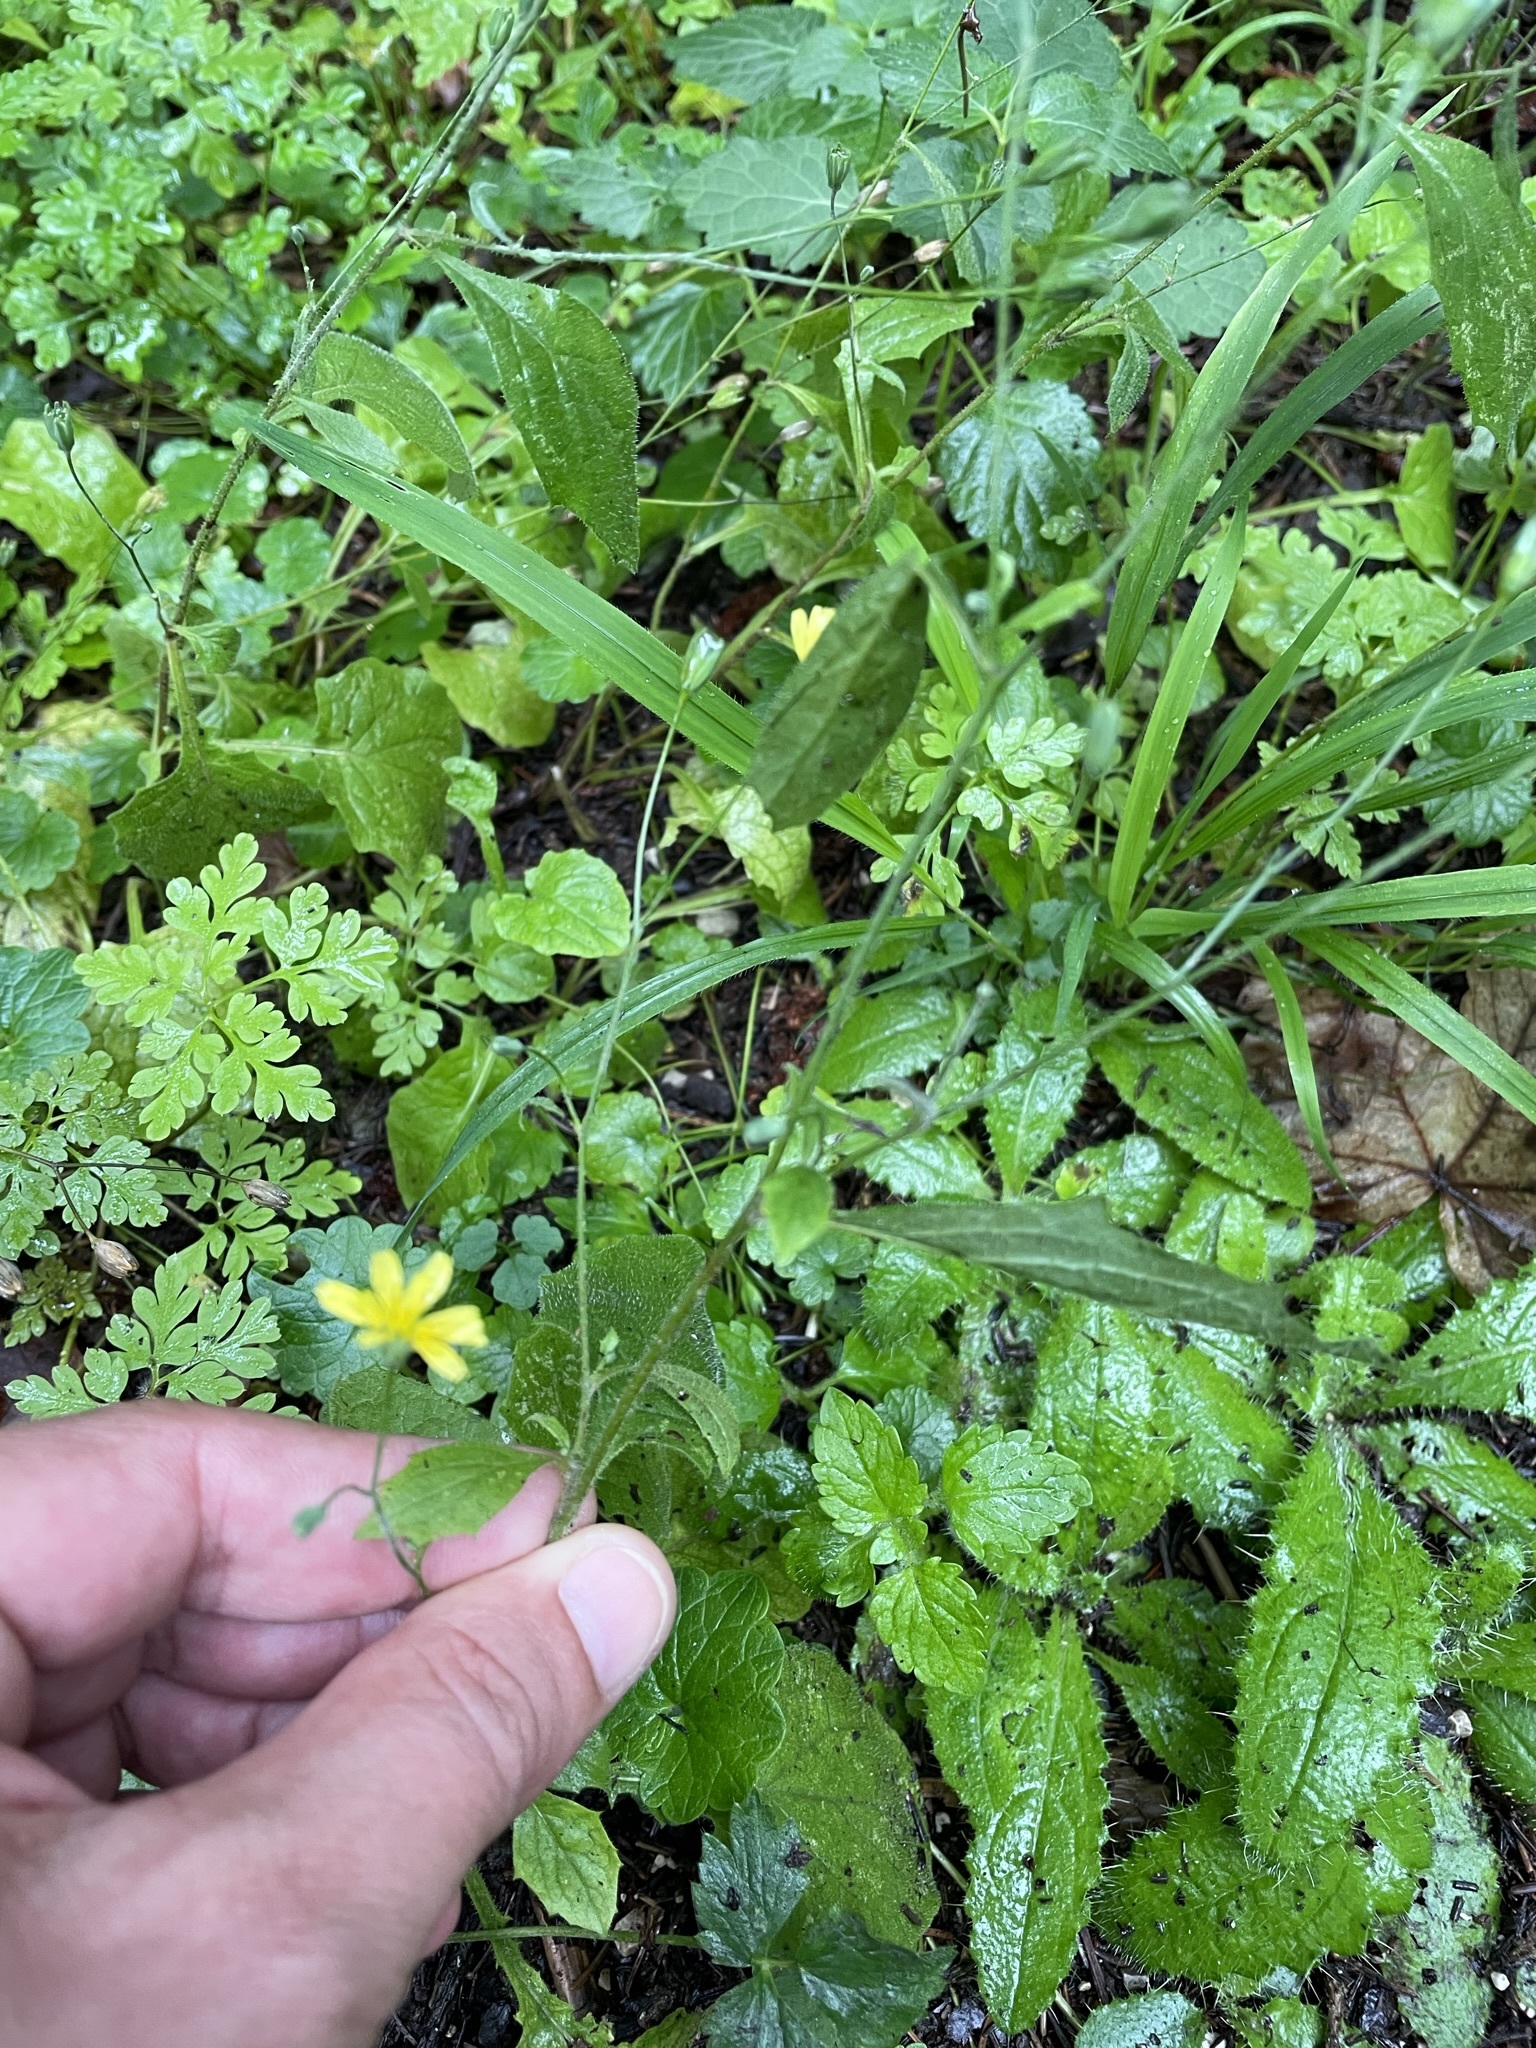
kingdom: Plantae
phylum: Tracheophyta
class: Magnoliopsida
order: Asterales
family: Asteraceae
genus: Lapsana
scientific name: Lapsana communis
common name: Nipplewort
